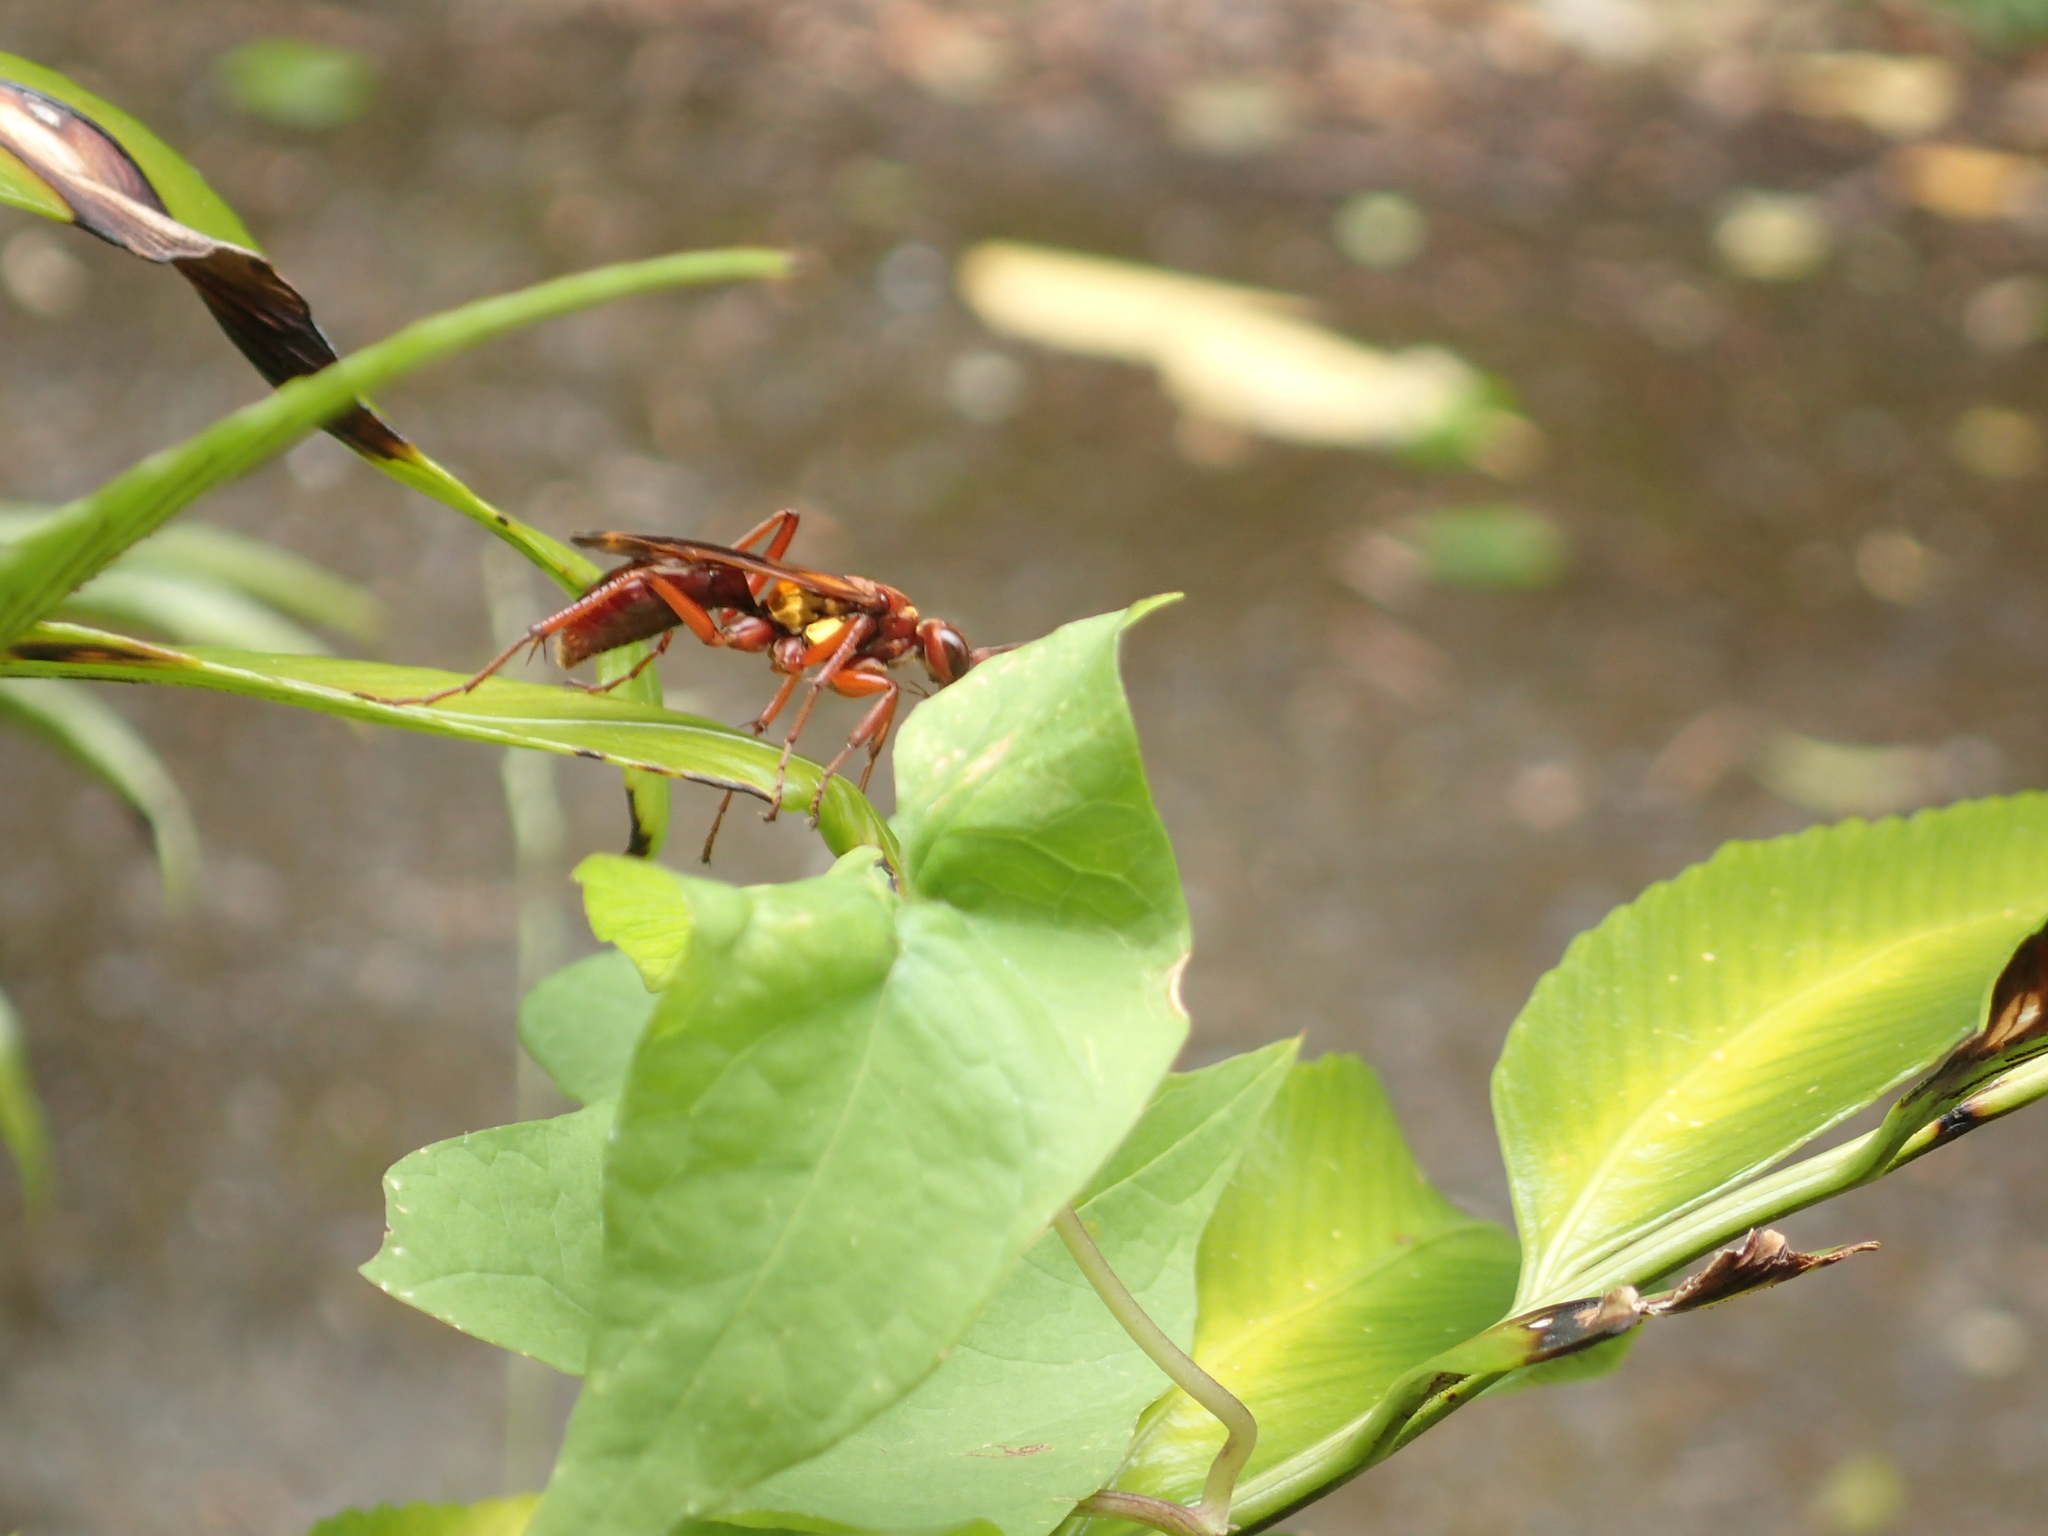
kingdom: Animalia
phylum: Arthropoda
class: Insecta
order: Hymenoptera
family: Pompilidae
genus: Sphictostethus
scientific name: Sphictostethus nitidus
